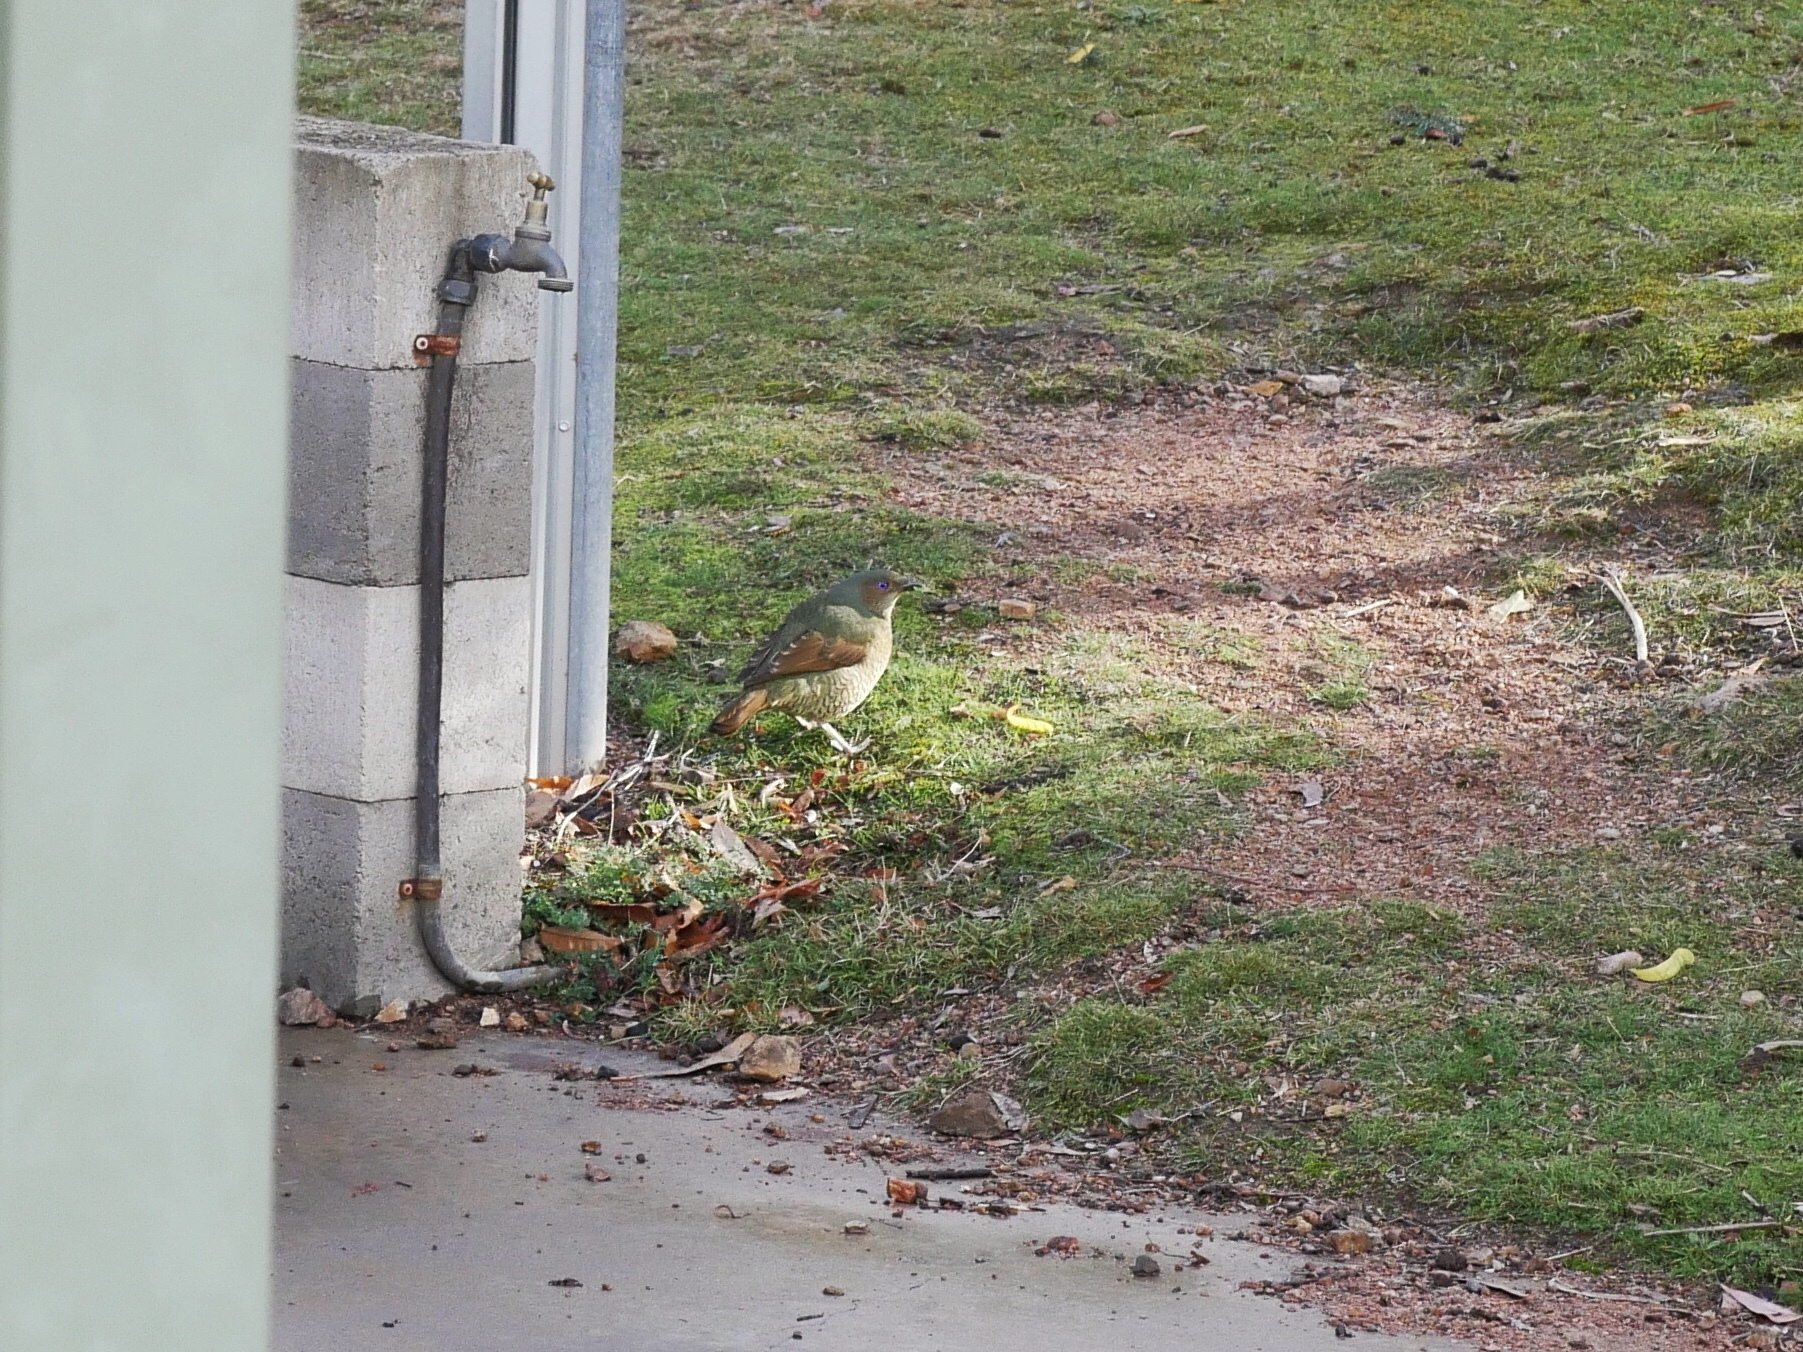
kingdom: Animalia
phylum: Chordata
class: Aves
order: Passeriformes
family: Ptilonorhynchidae
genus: Ptilonorhynchus
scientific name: Ptilonorhynchus violaceus
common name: Satin bowerbird
